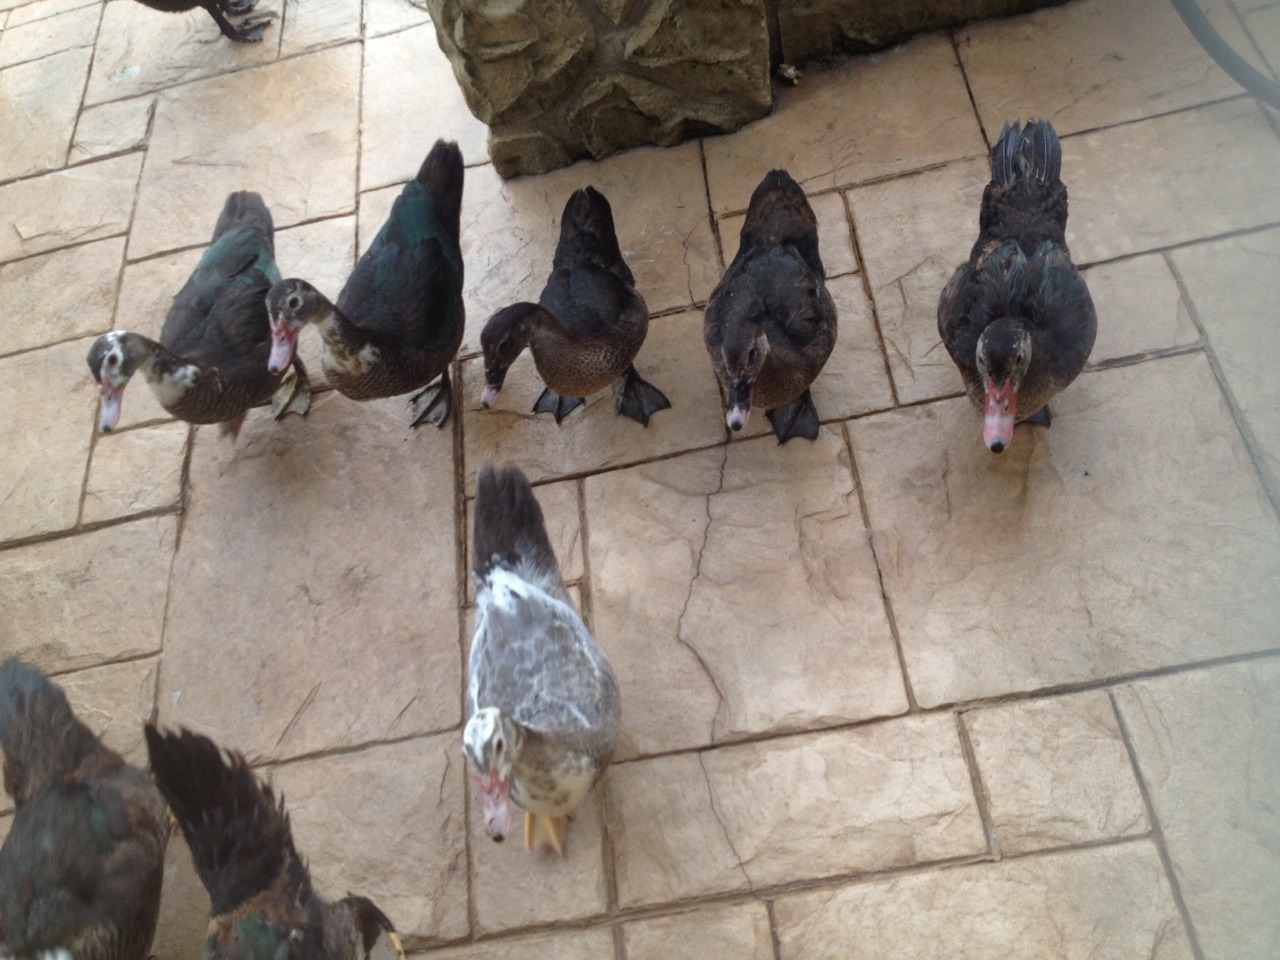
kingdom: Animalia
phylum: Chordata
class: Aves
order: Anseriformes
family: Anatidae
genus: Cairina
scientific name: Cairina moschata
